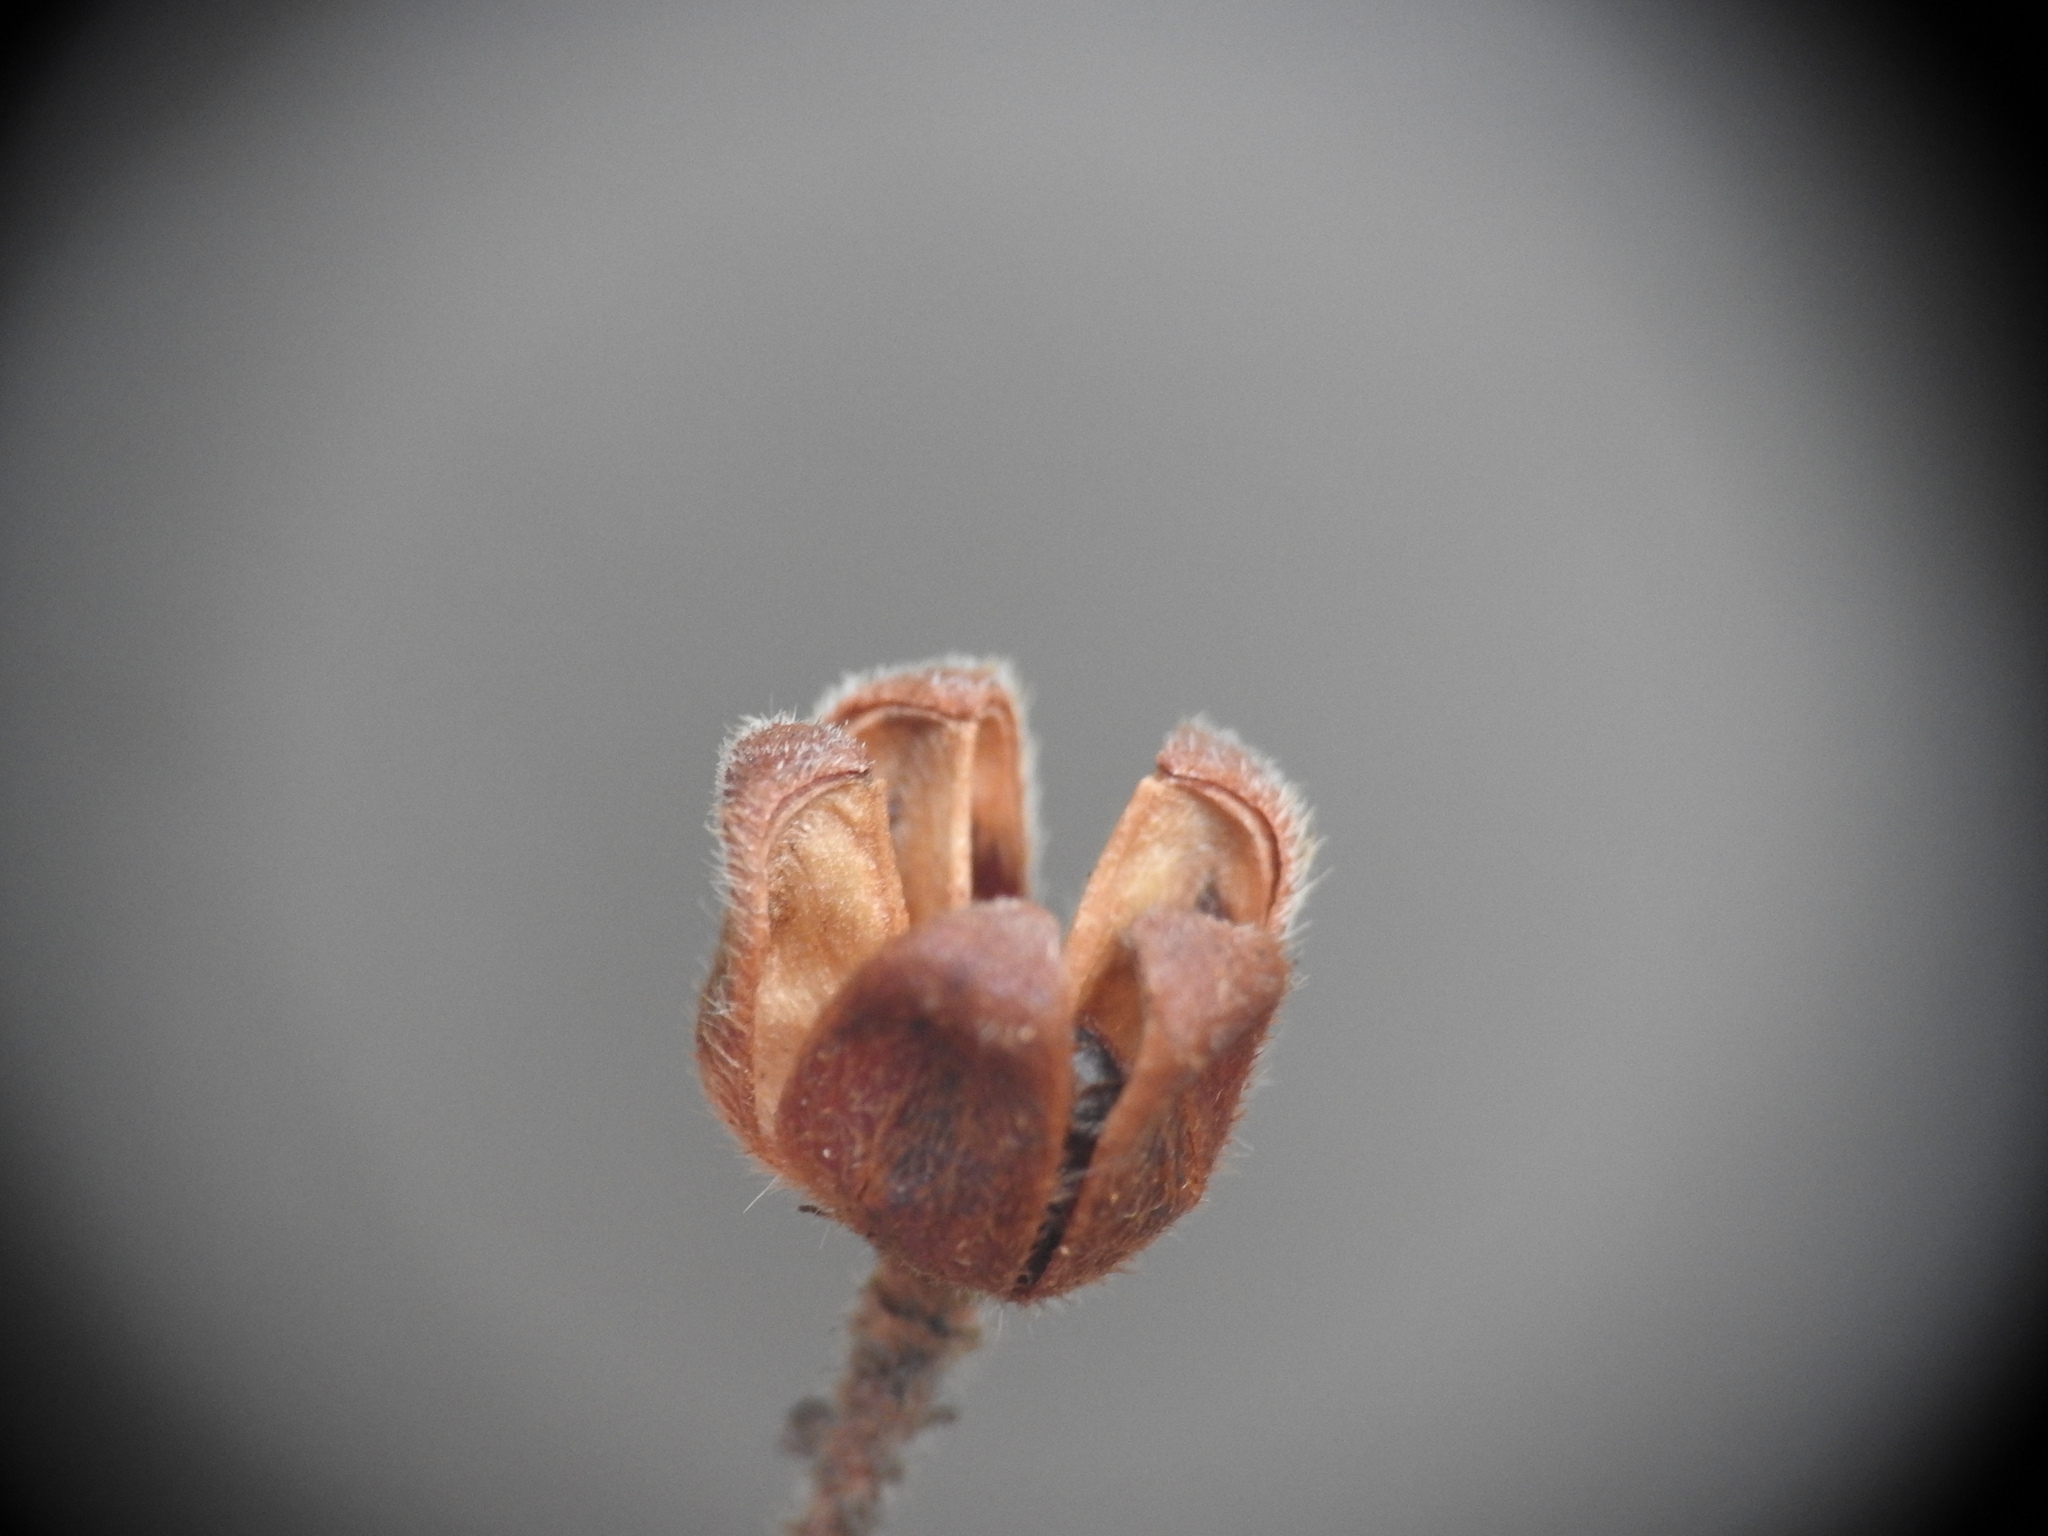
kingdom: Plantae
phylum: Tracheophyta
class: Magnoliopsida
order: Malvales
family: Cistaceae
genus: Cistus
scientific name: Cistus salviifolius
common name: Salvia cistus
